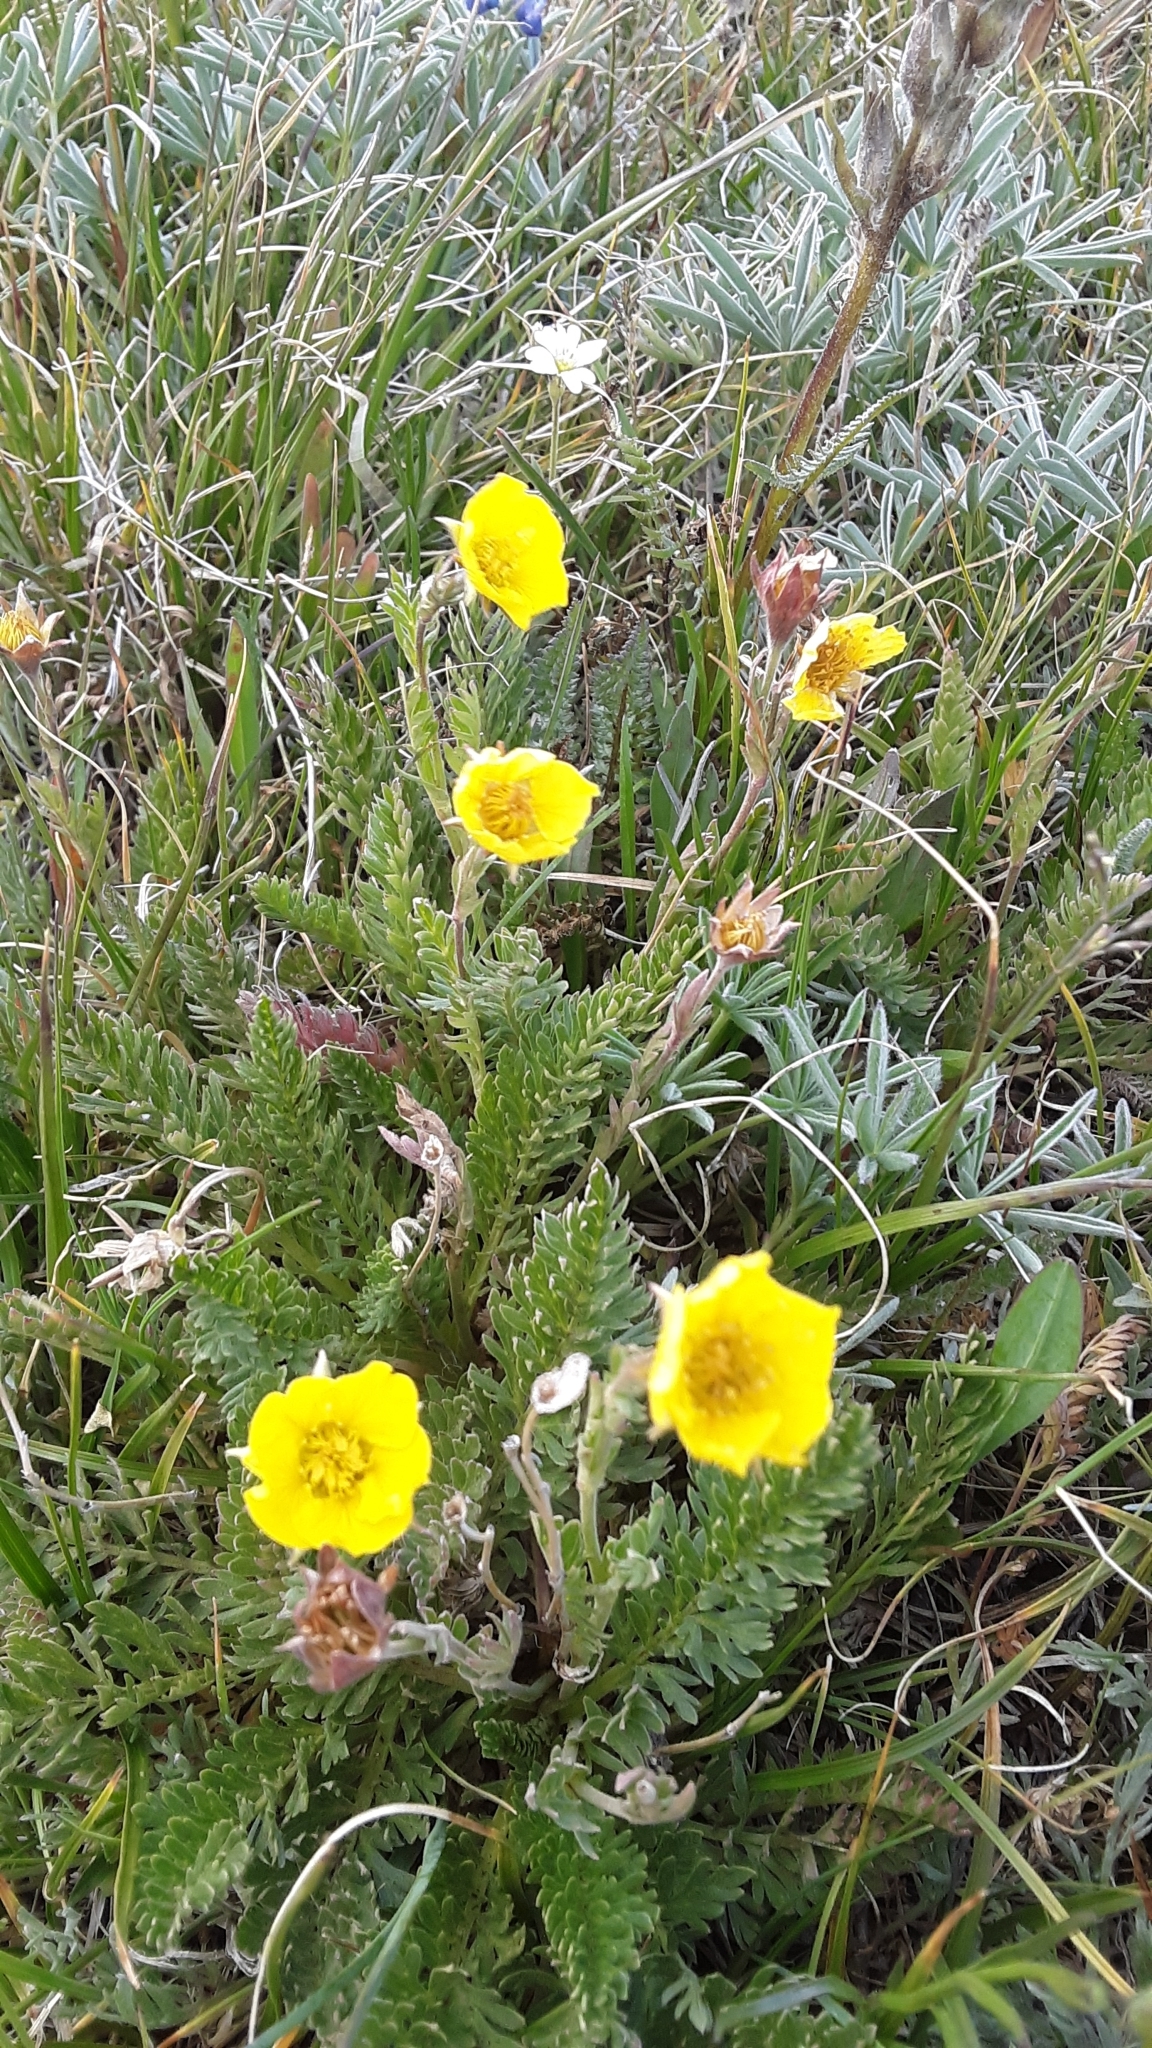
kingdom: Plantae
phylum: Tracheophyta
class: Magnoliopsida
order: Rosales
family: Rosaceae
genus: Geum
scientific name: Geum rossii
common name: Alpine avens
